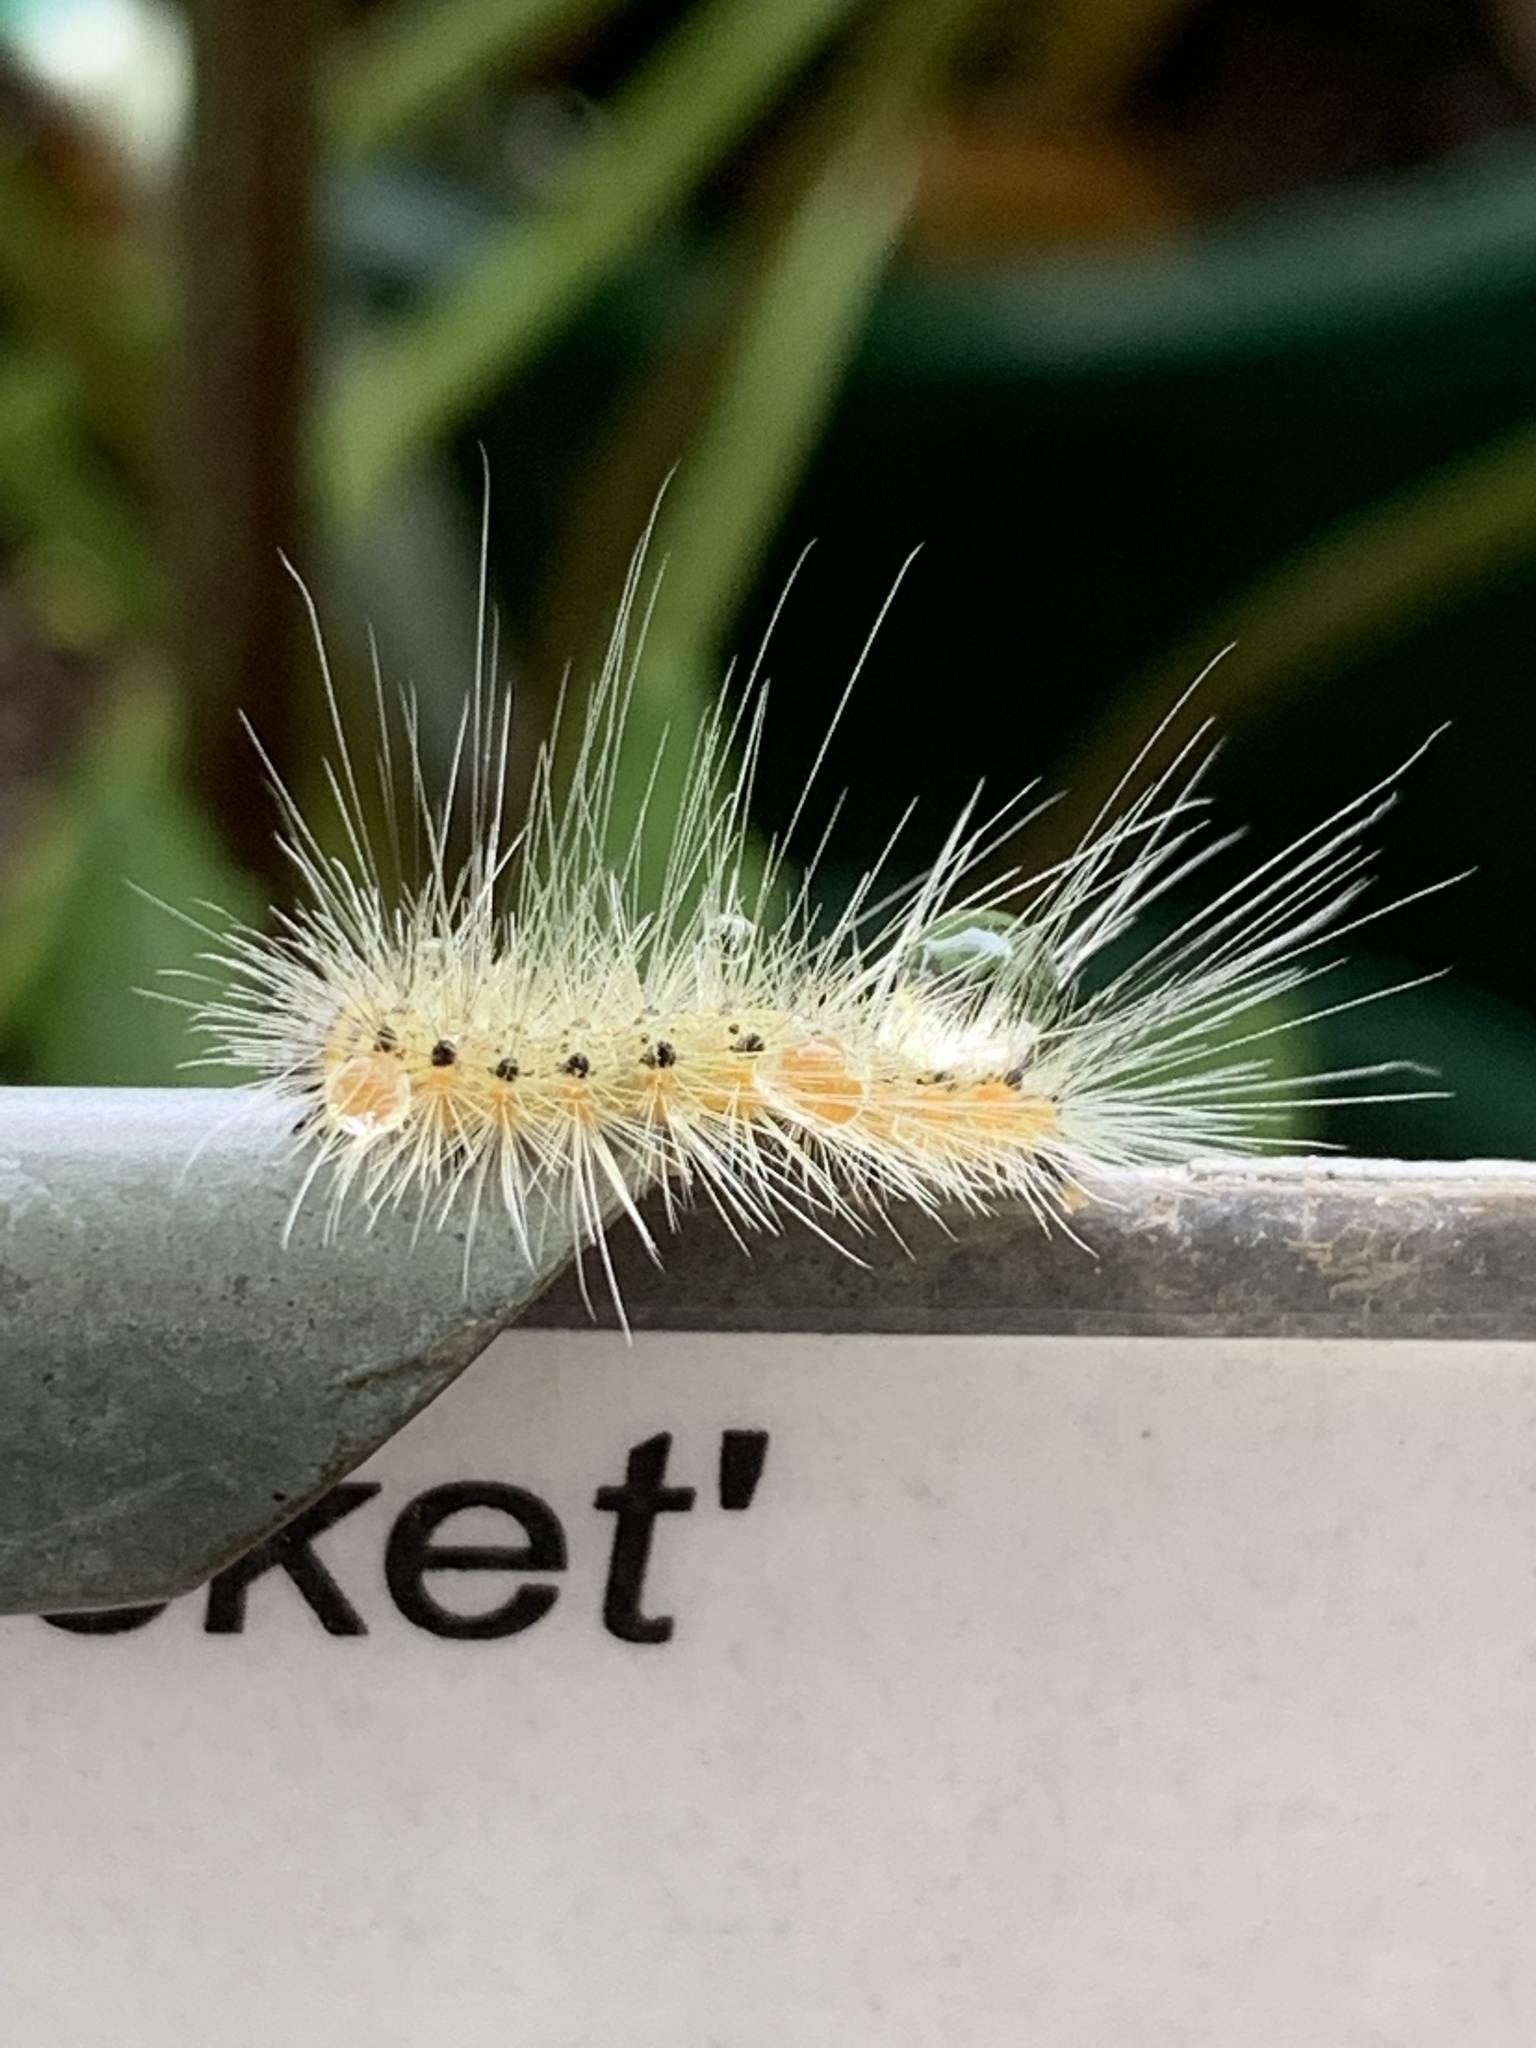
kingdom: Animalia
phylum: Arthropoda
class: Insecta
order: Lepidoptera
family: Erebidae
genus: Hyphantria
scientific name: Hyphantria cunea
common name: American white moth
